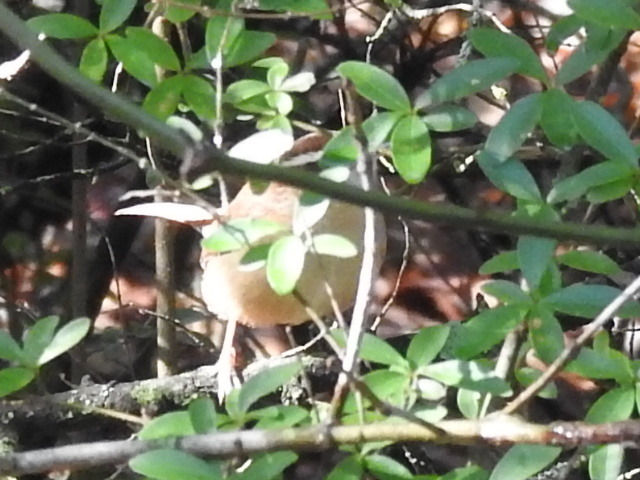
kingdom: Animalia
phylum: Chordata
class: Aves
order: Passeriformes
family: Troglodytidae
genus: Thryothorus
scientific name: Thryothorus ludovicianus
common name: Carolina wren
